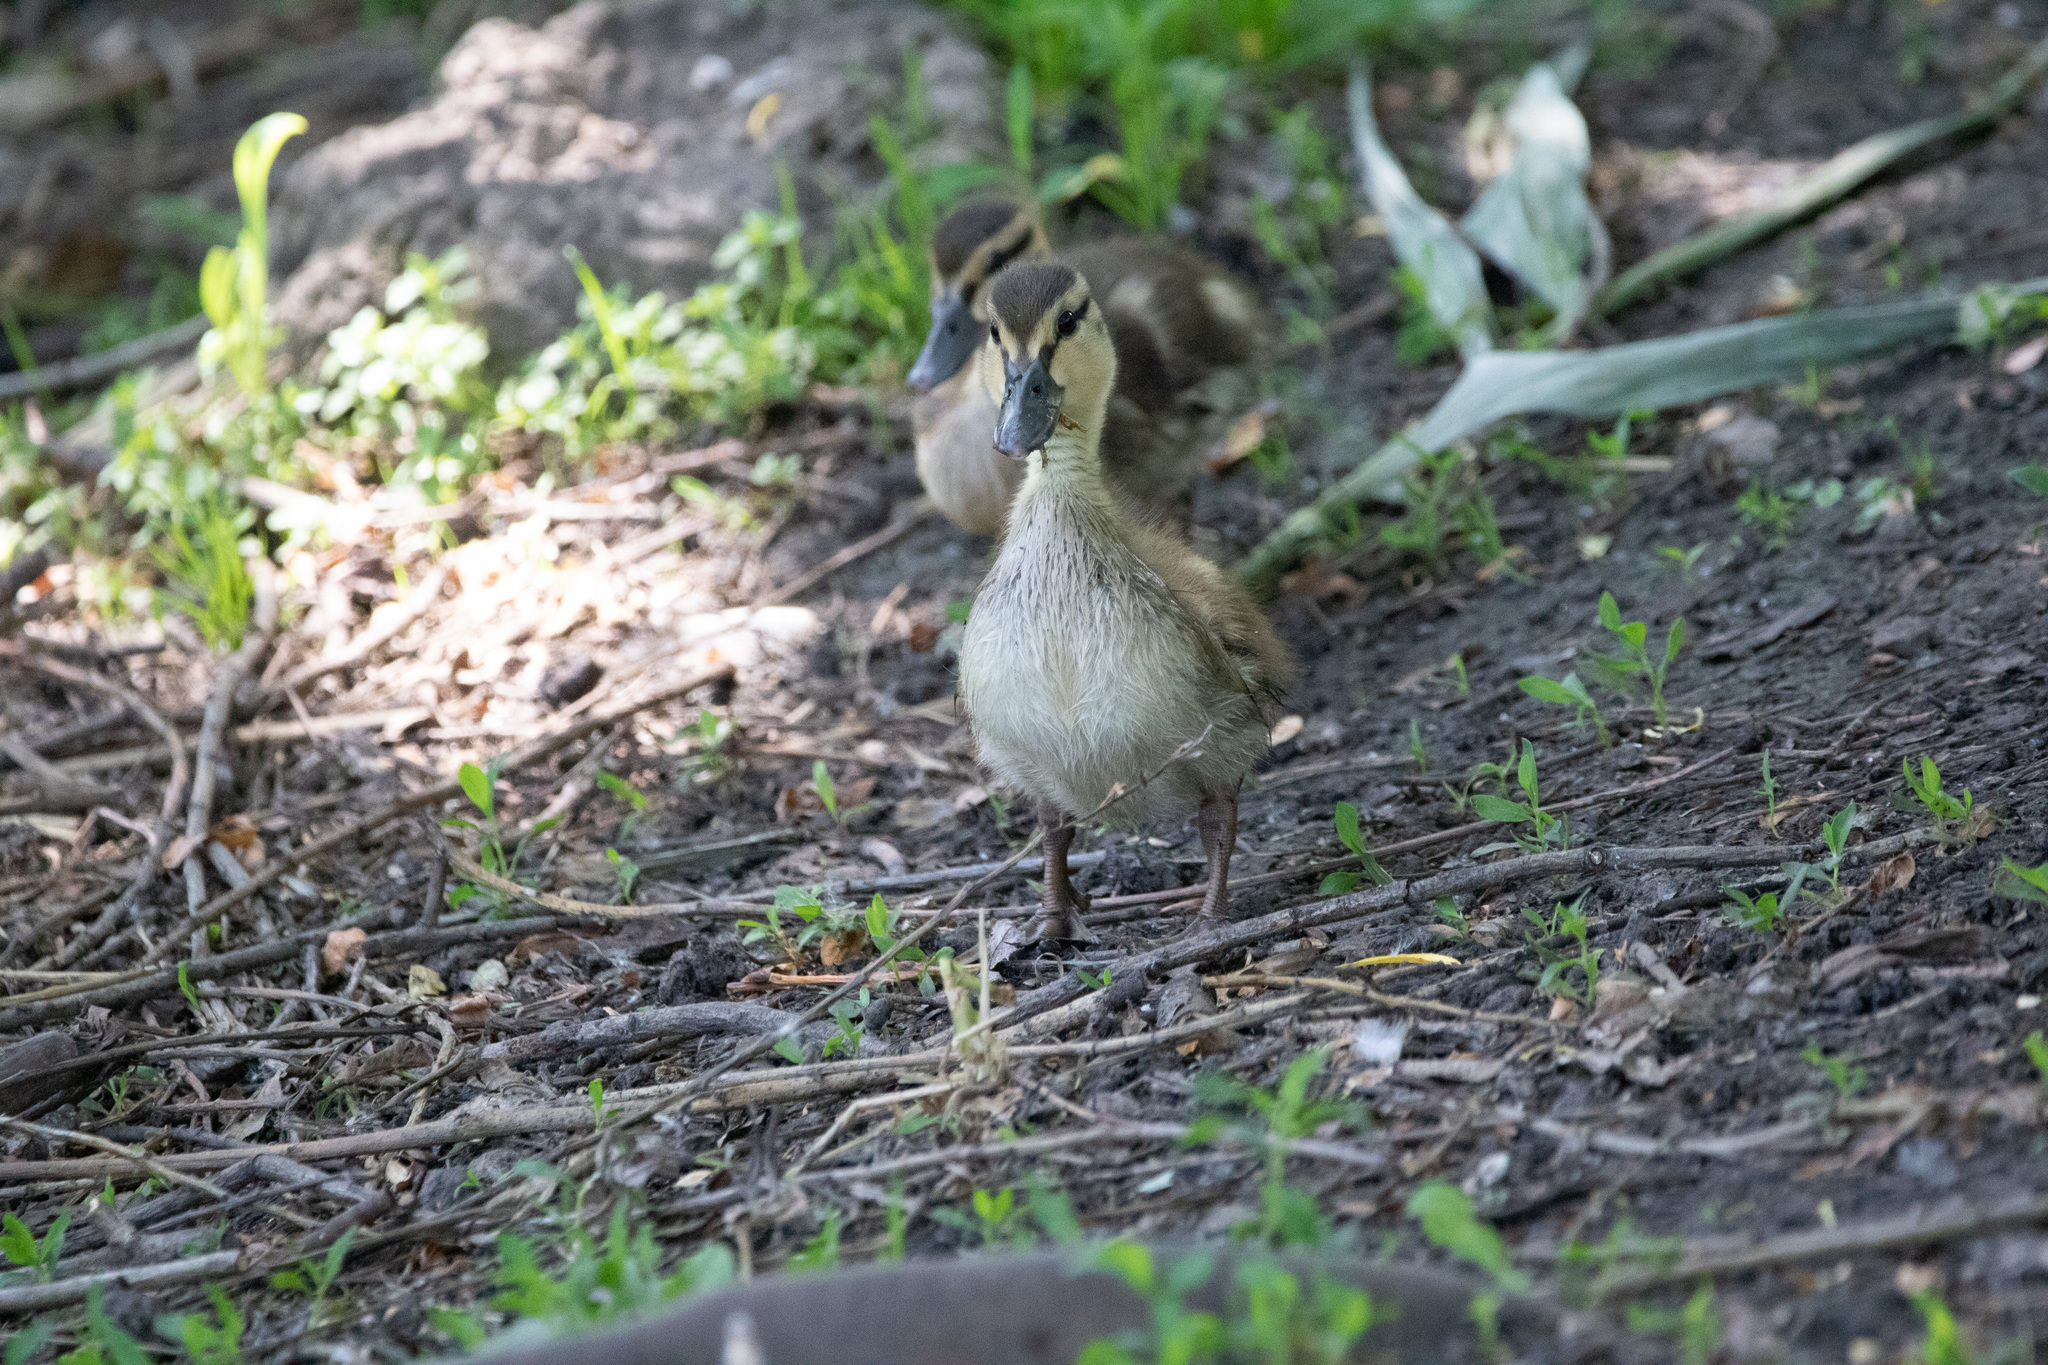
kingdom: Animalia
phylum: Chordata
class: Aves
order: Anseriformes
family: Anatidae
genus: Anas
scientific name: Anas platyrhynchos
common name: Mallard
